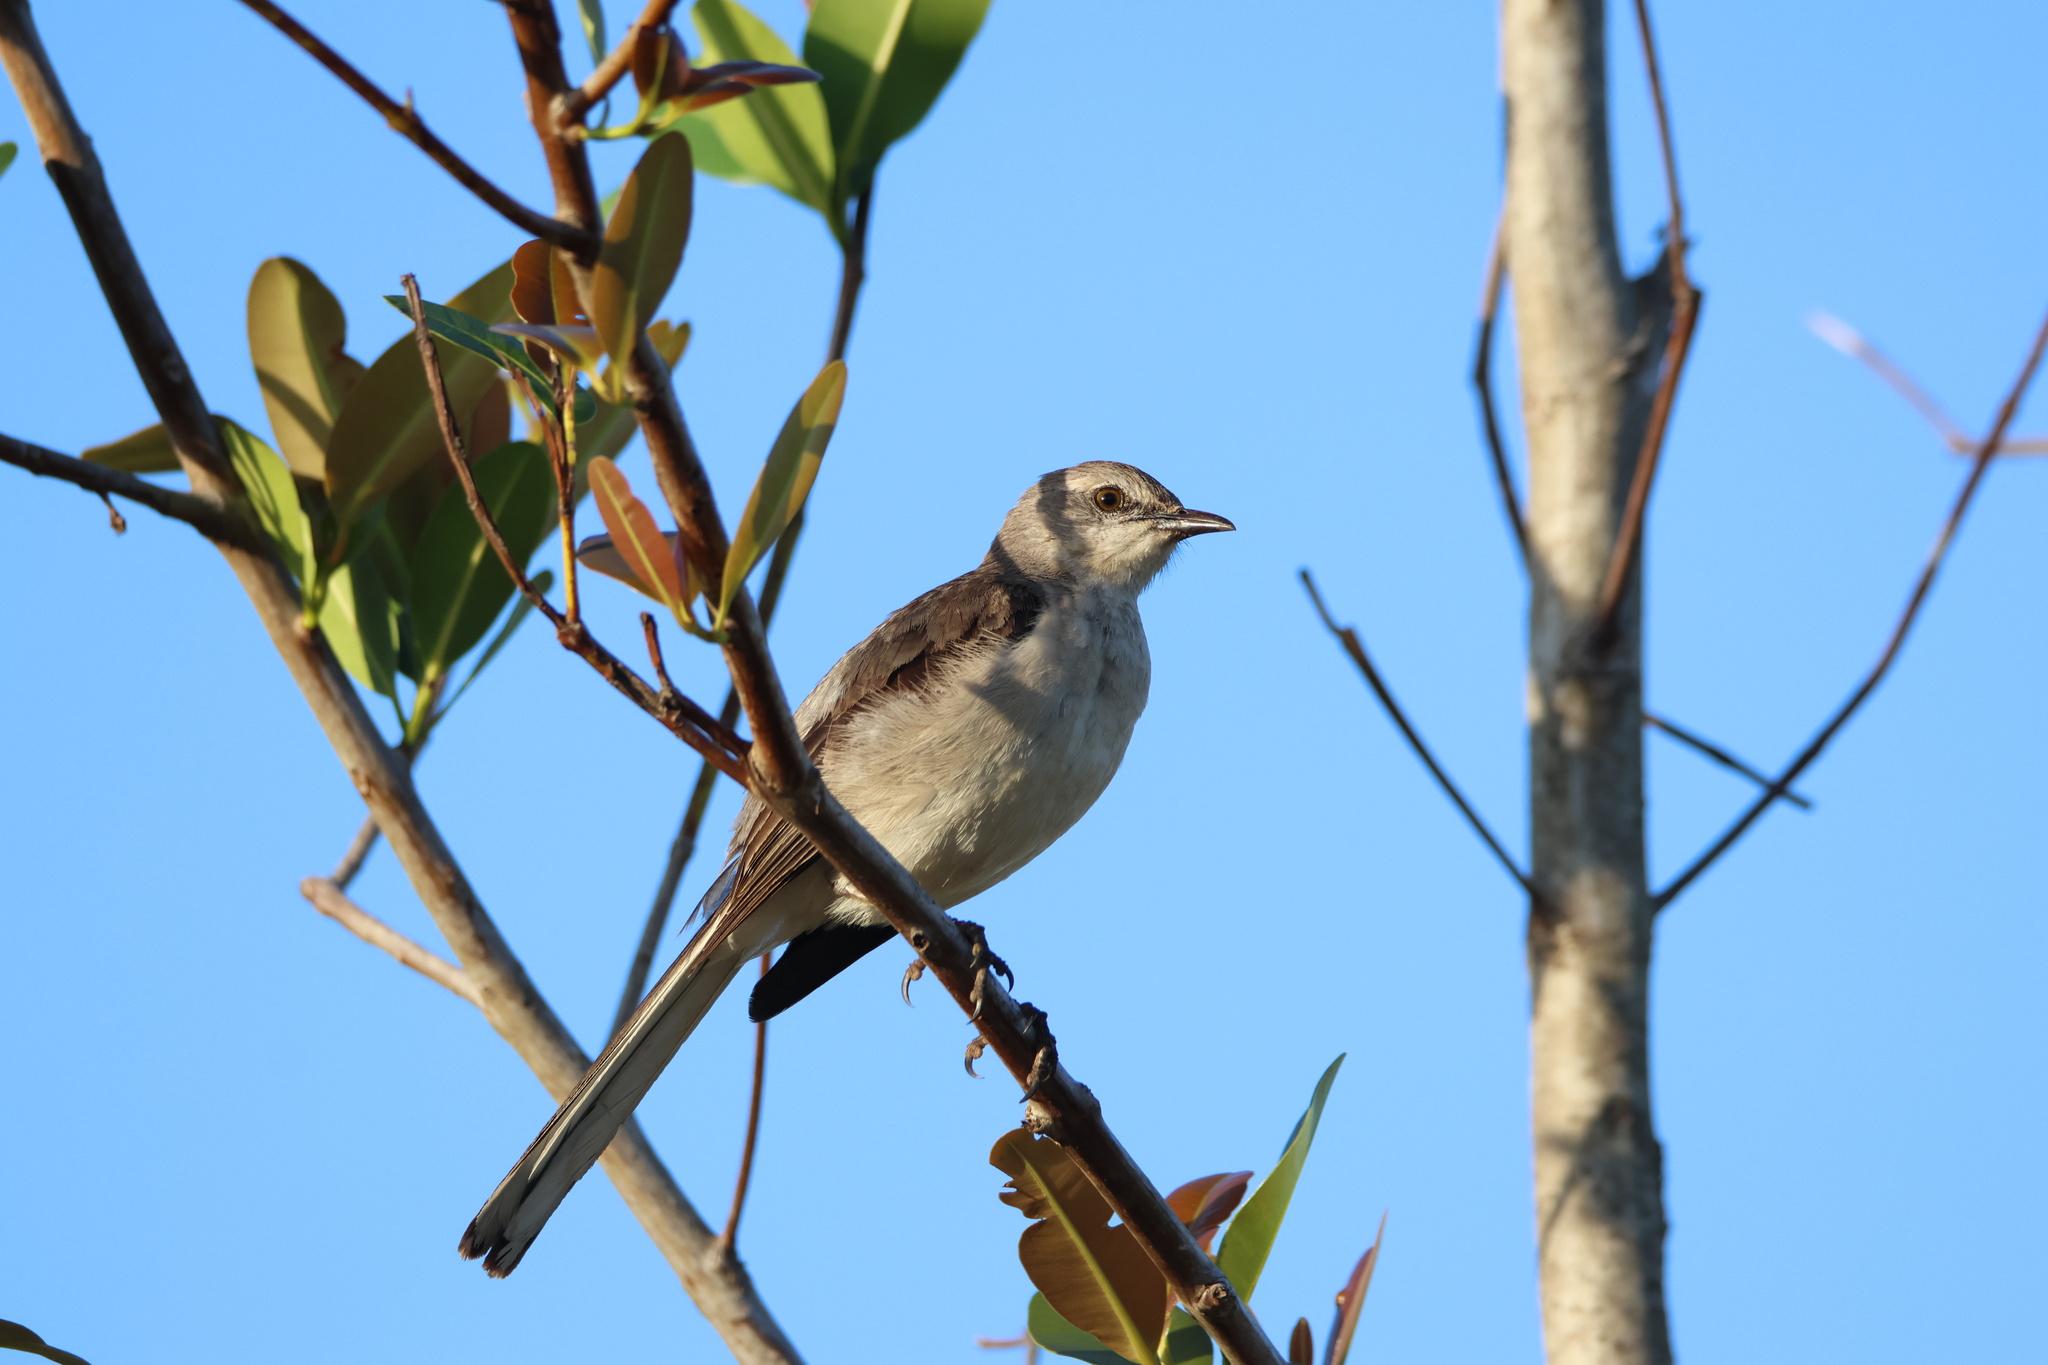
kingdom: Animalia
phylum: Chordata
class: Aves
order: Passeriformes
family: Mimidae
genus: Mimus
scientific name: Mimus polyglottos
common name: Northern mockingbird
